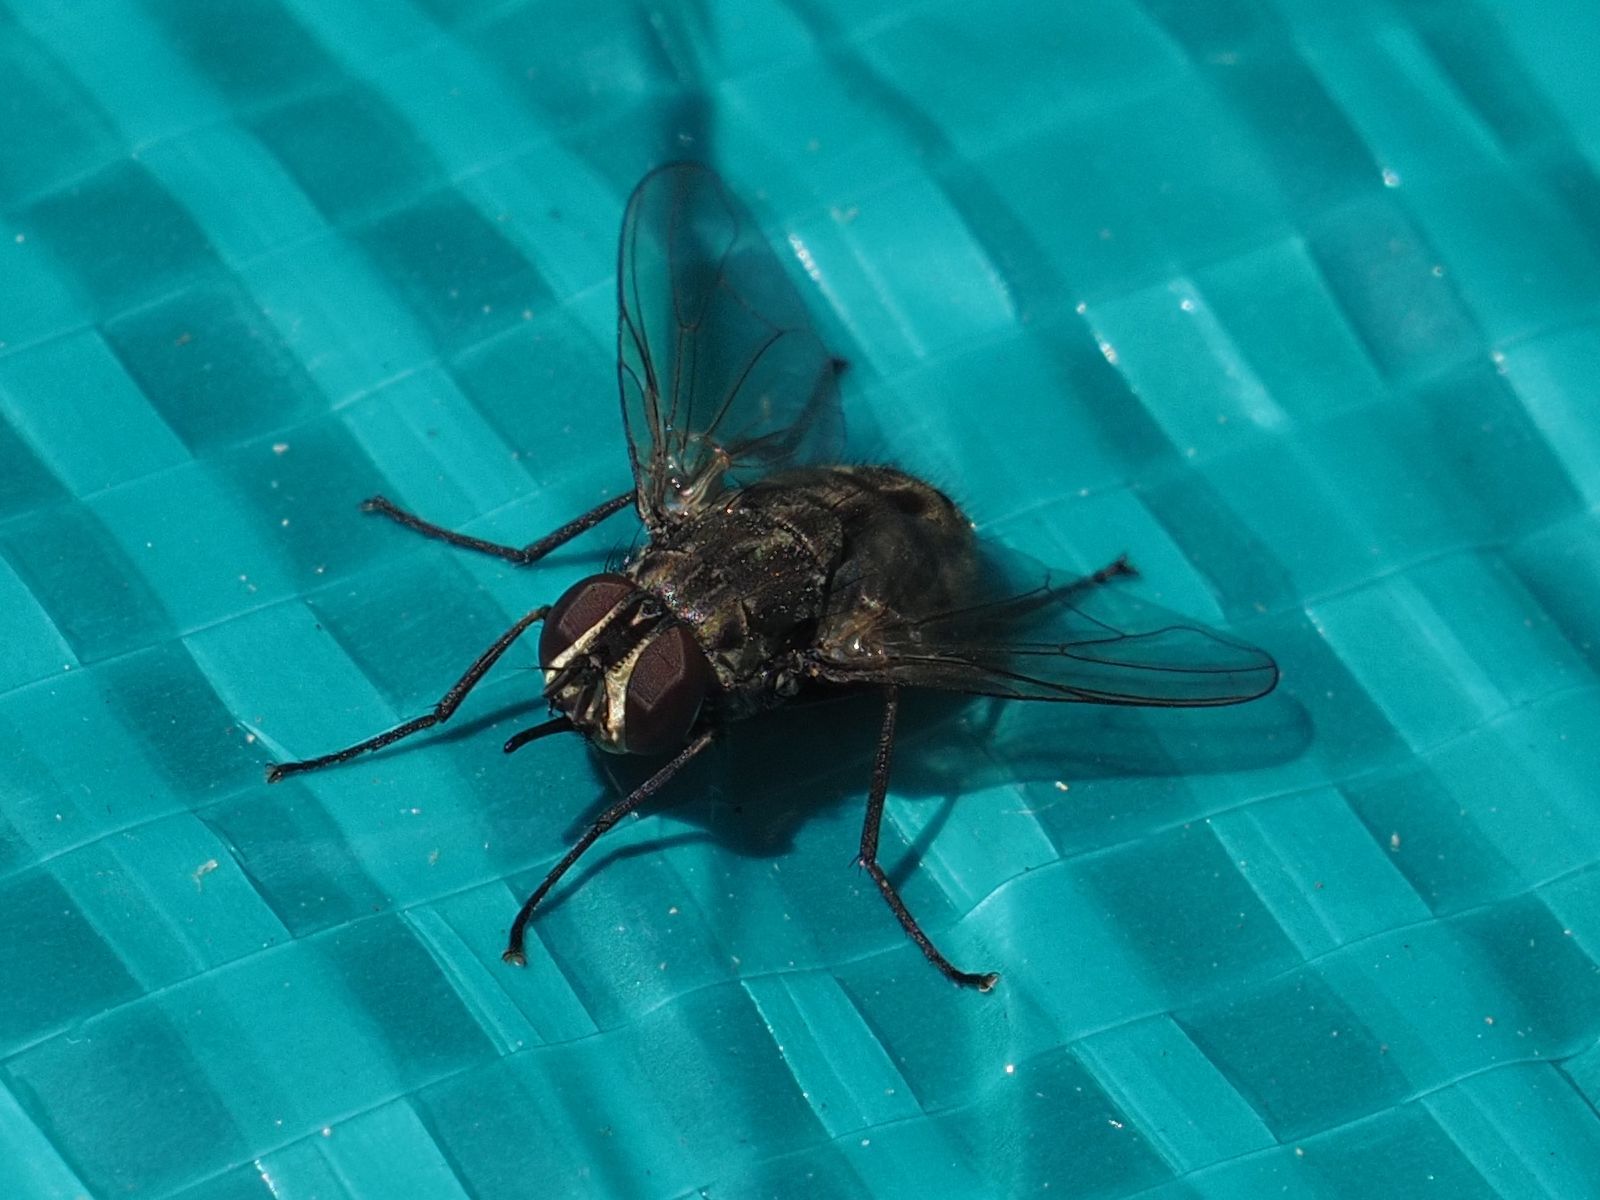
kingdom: Animalia
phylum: Arthropoda
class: Insecta
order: Diptera
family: Muscidae
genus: Stomoxys
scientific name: Stomoxys calcitrans
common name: Stable fly
